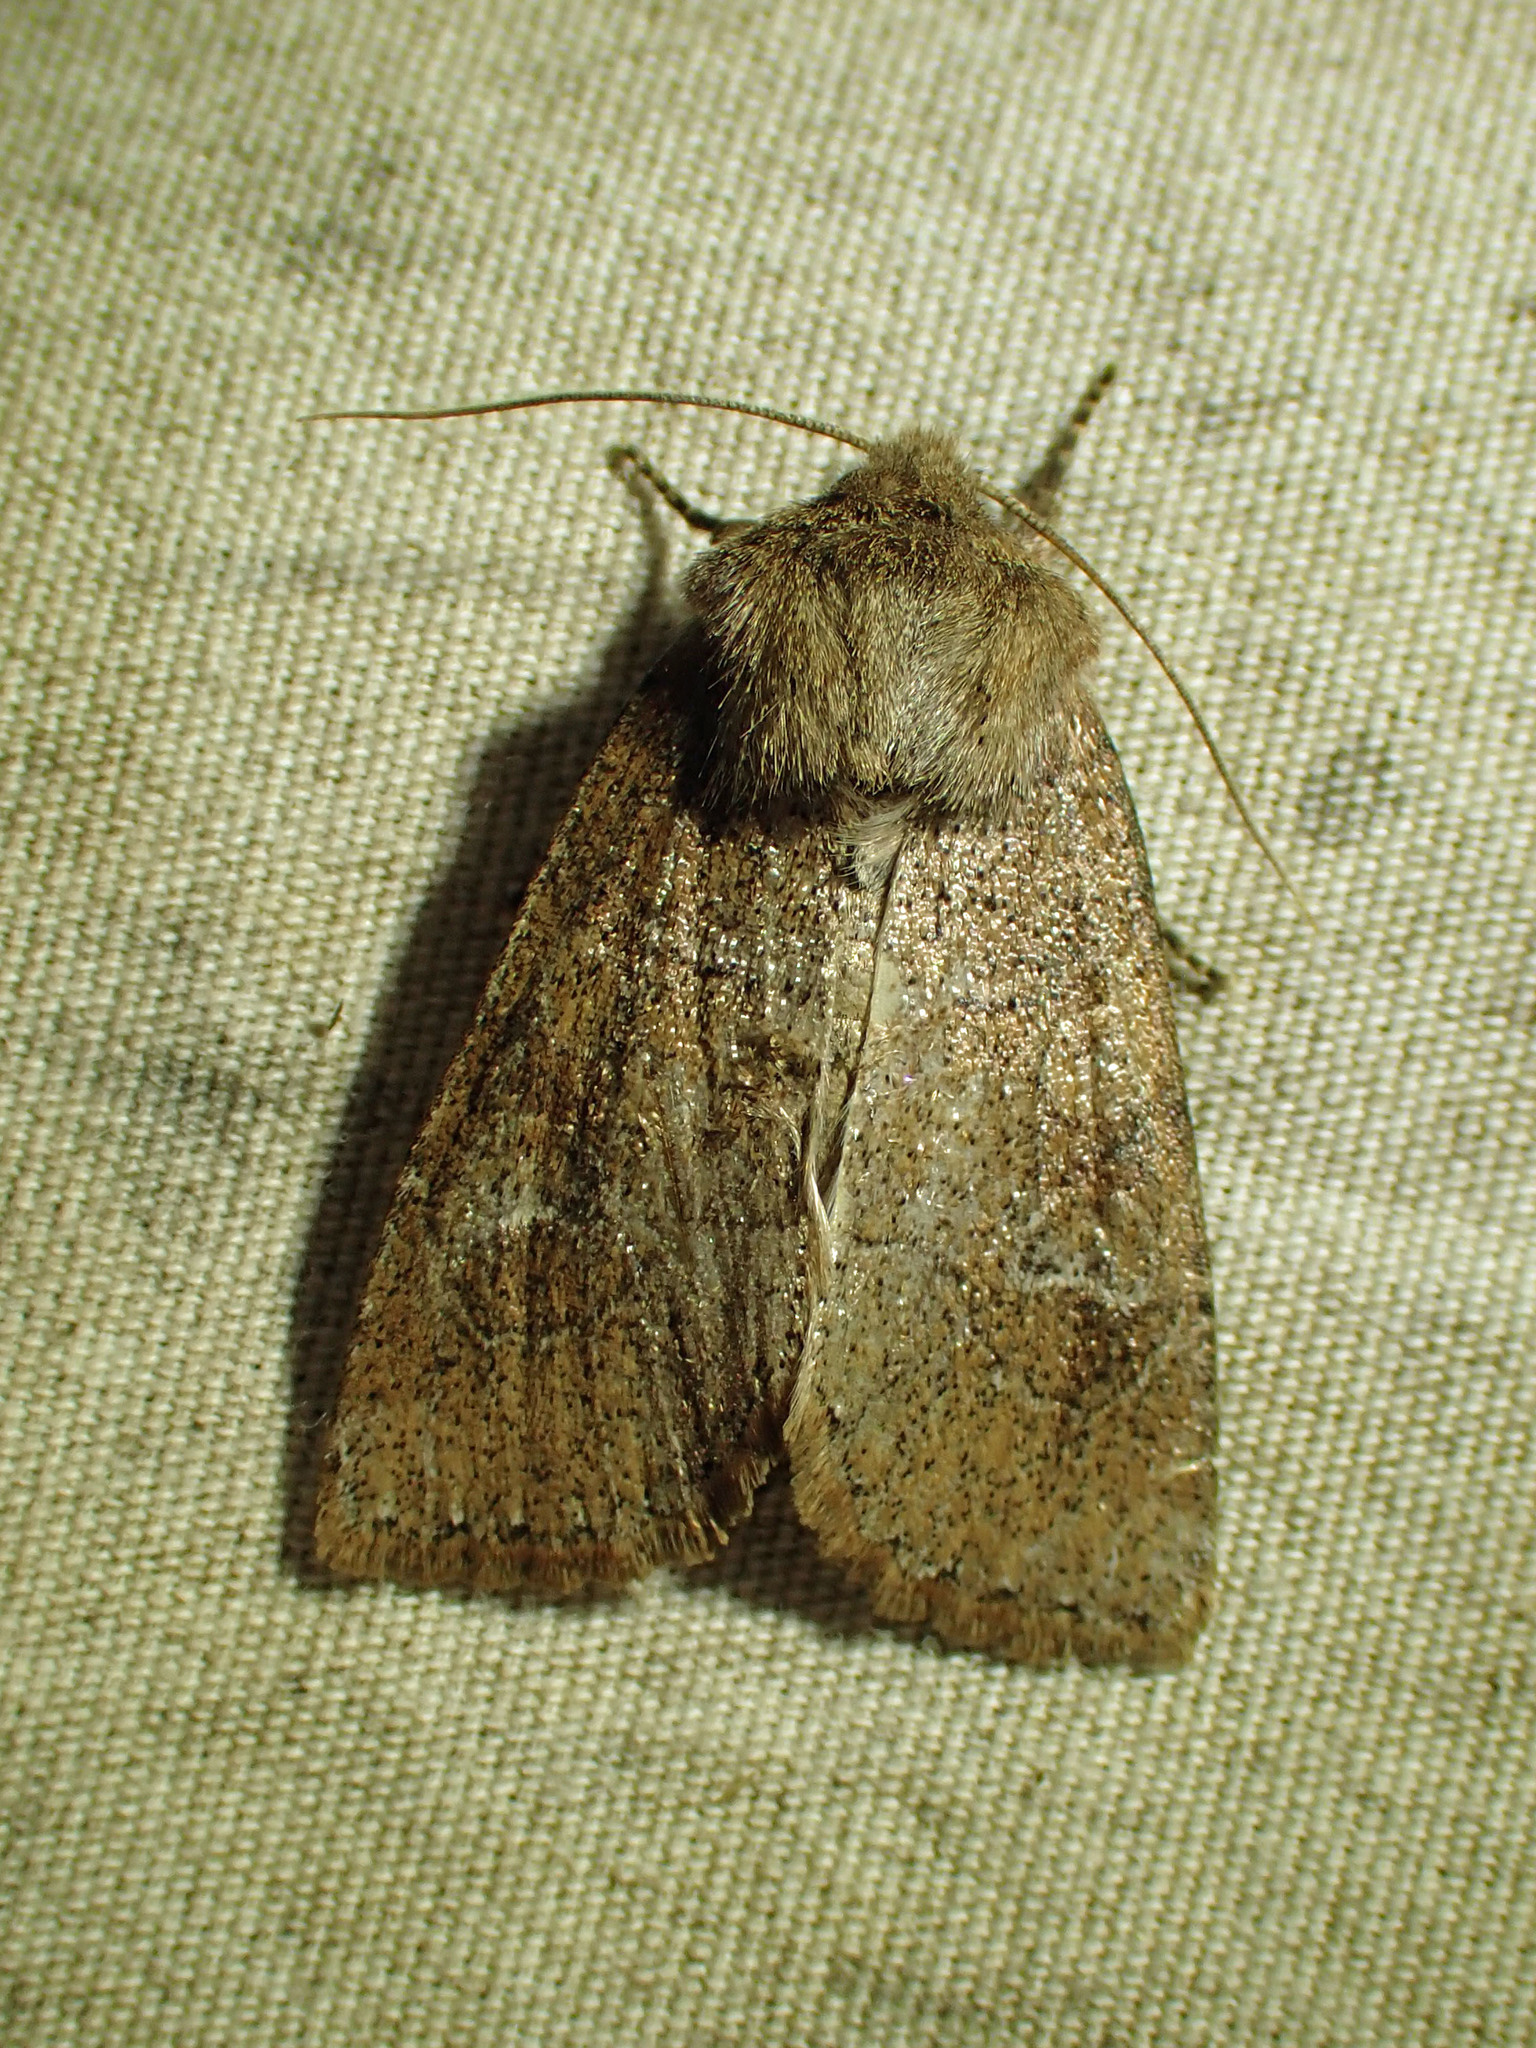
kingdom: Animalia
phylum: Arthropoda
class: Insecta
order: Lepidoptera
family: Noctuidae
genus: Crocigrapha
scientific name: Crocigrapha normani
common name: Norman's quaker
